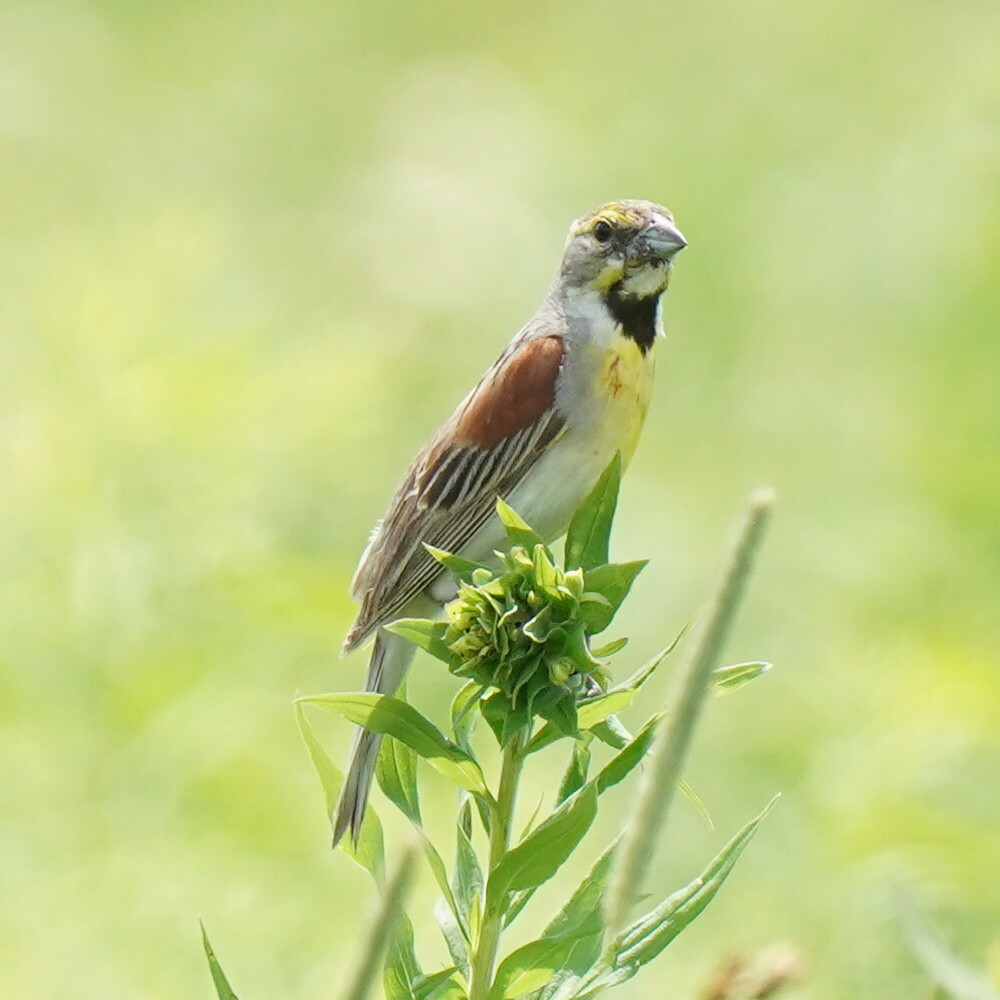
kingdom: Animalia
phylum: Chordata
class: Aves
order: Passeriformes
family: Cardinalidae
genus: Spiza
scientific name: Spiza americana
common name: Dickcissel
